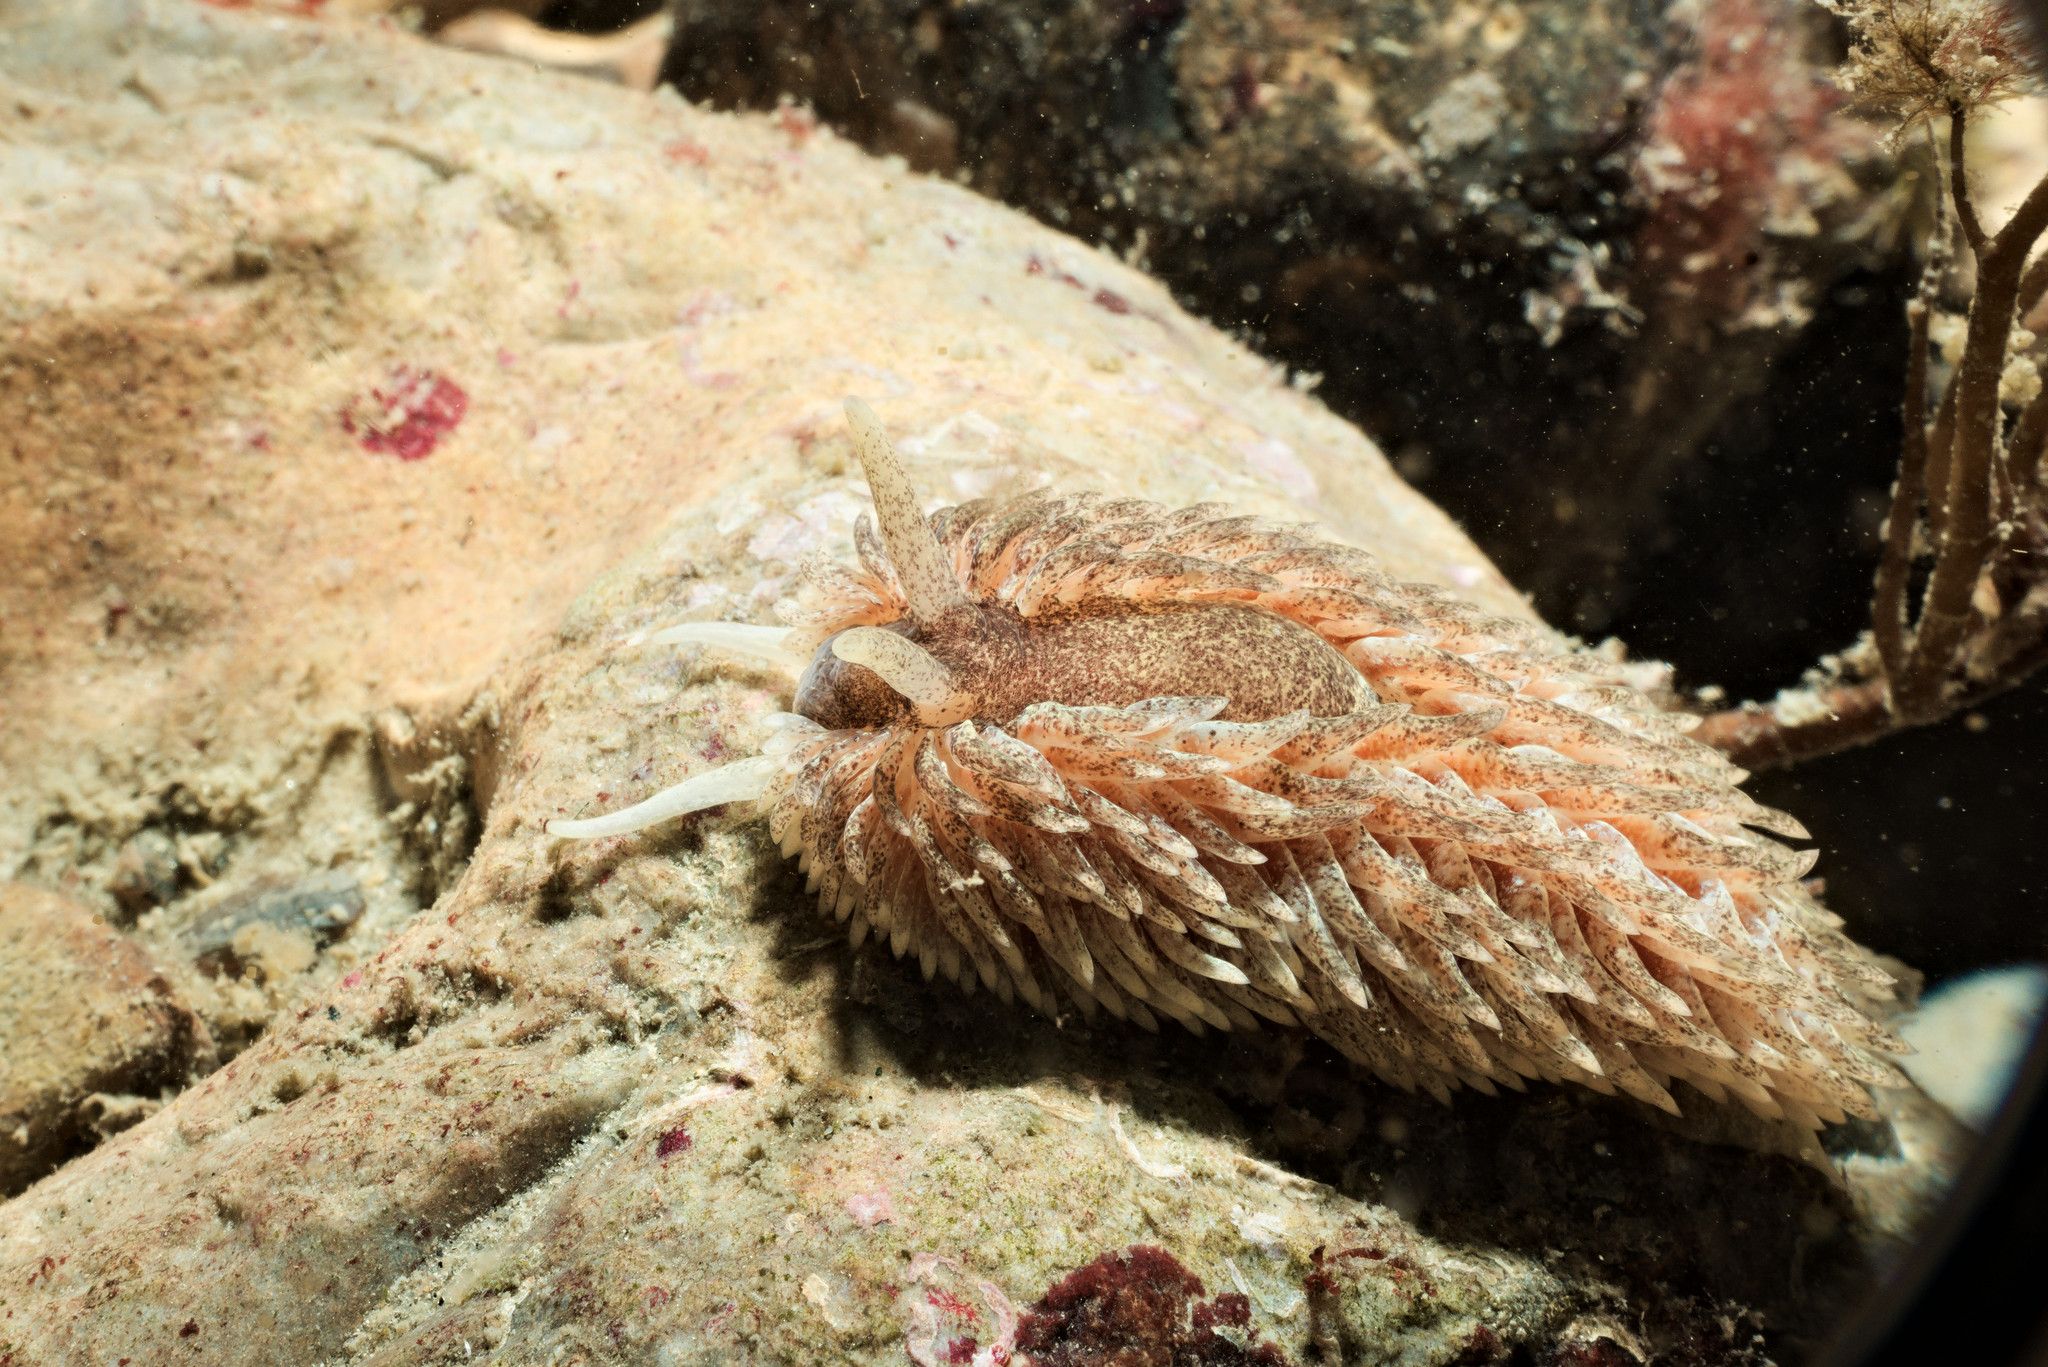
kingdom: Animalia
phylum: Mollusca
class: Gastropoda
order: Nudibranchia
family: Aeolidiidae
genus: Aeolidia
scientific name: Aeolidia papillosa
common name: Common grey sea slug
